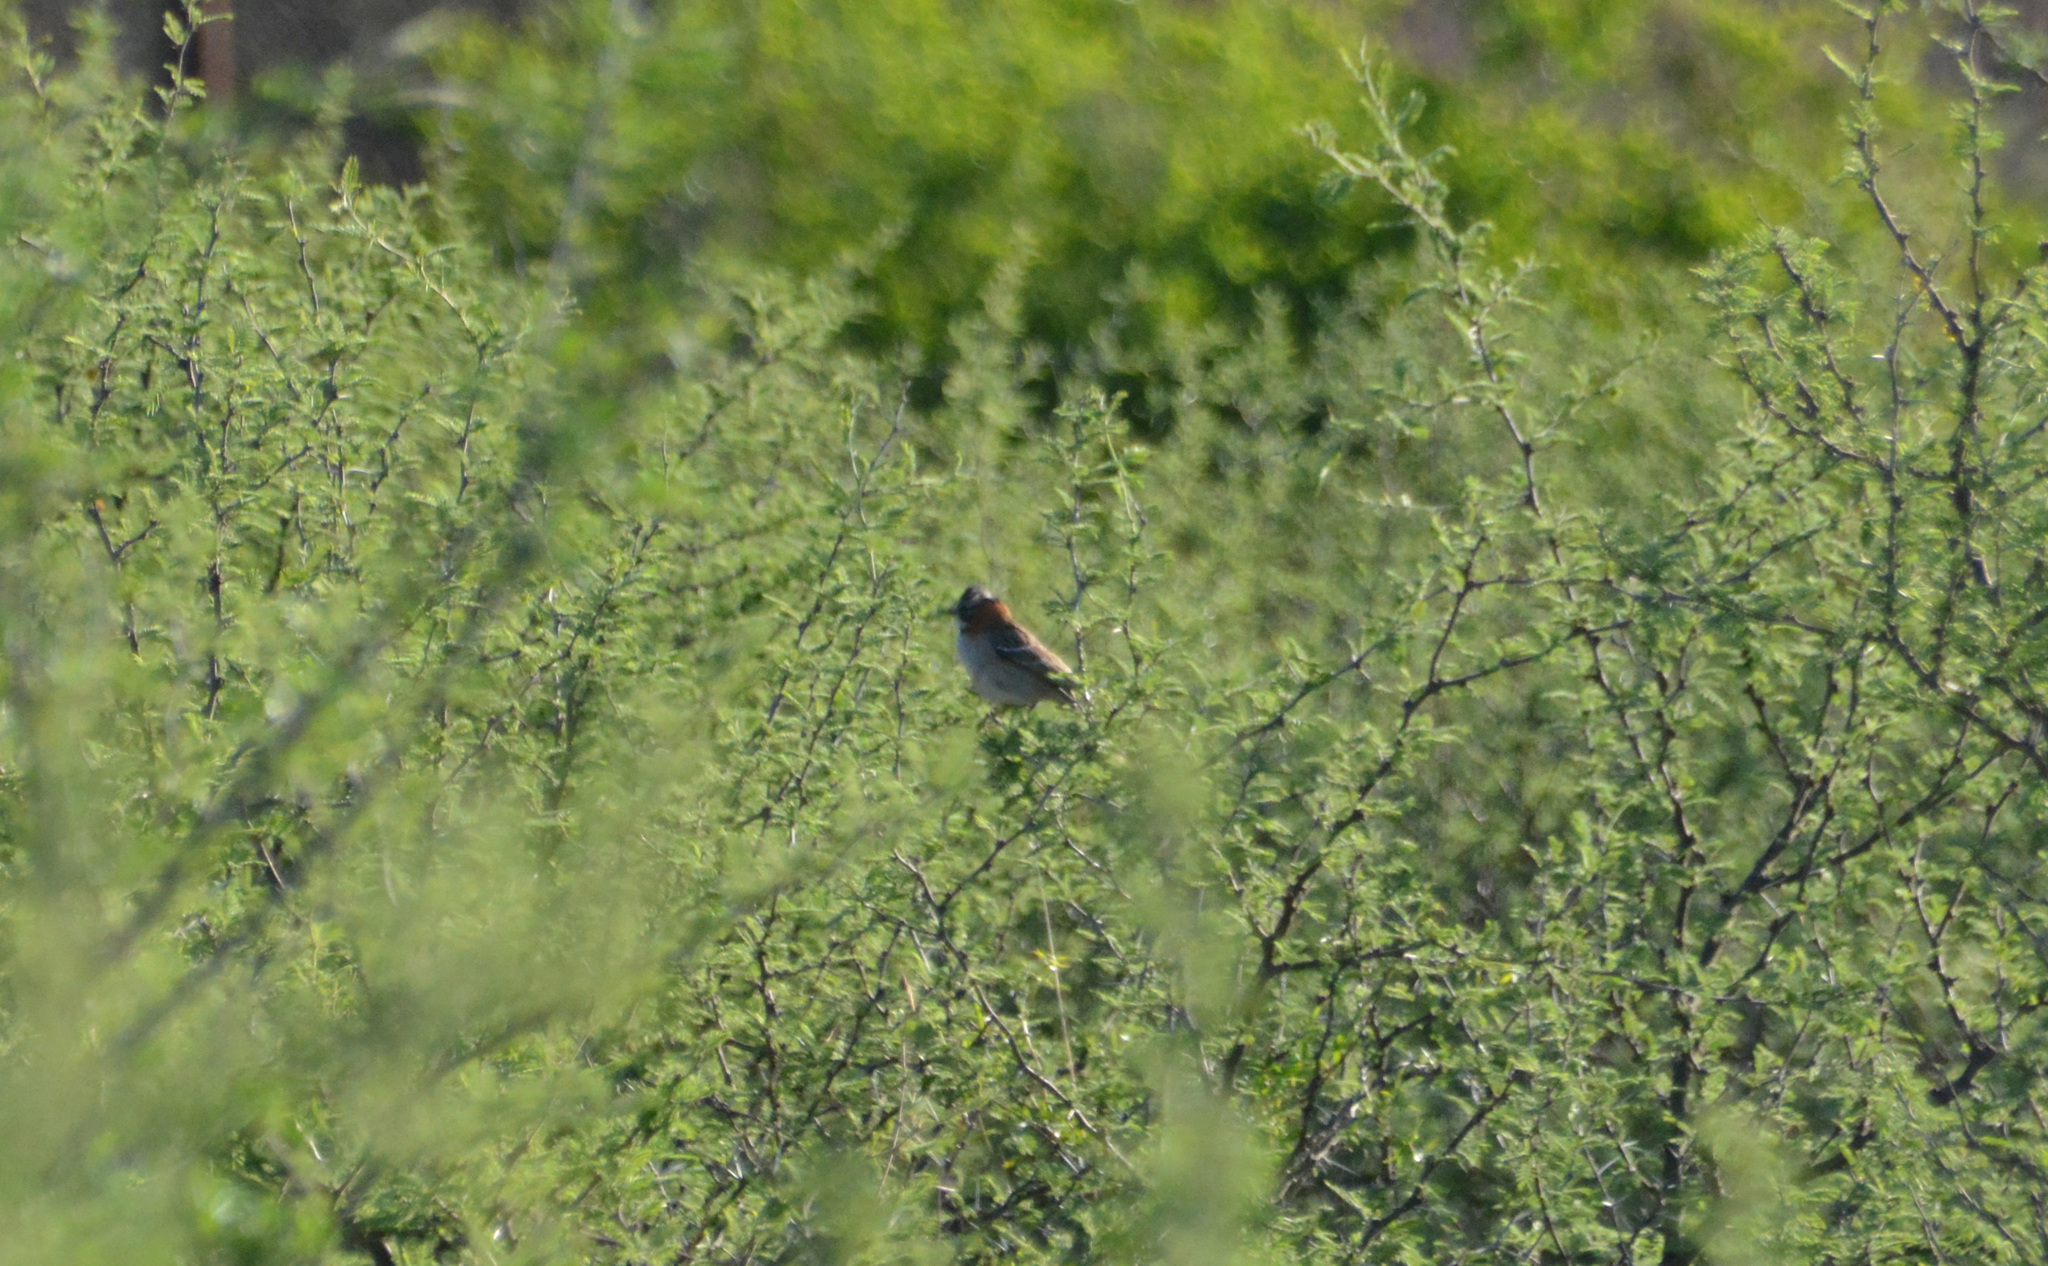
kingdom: Animalia
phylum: Chordata
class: Aves
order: Passeriformes
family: Passerellidae
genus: Zonotrichia
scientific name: Zonotrichia capensis
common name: Rufous-collared sparrow
